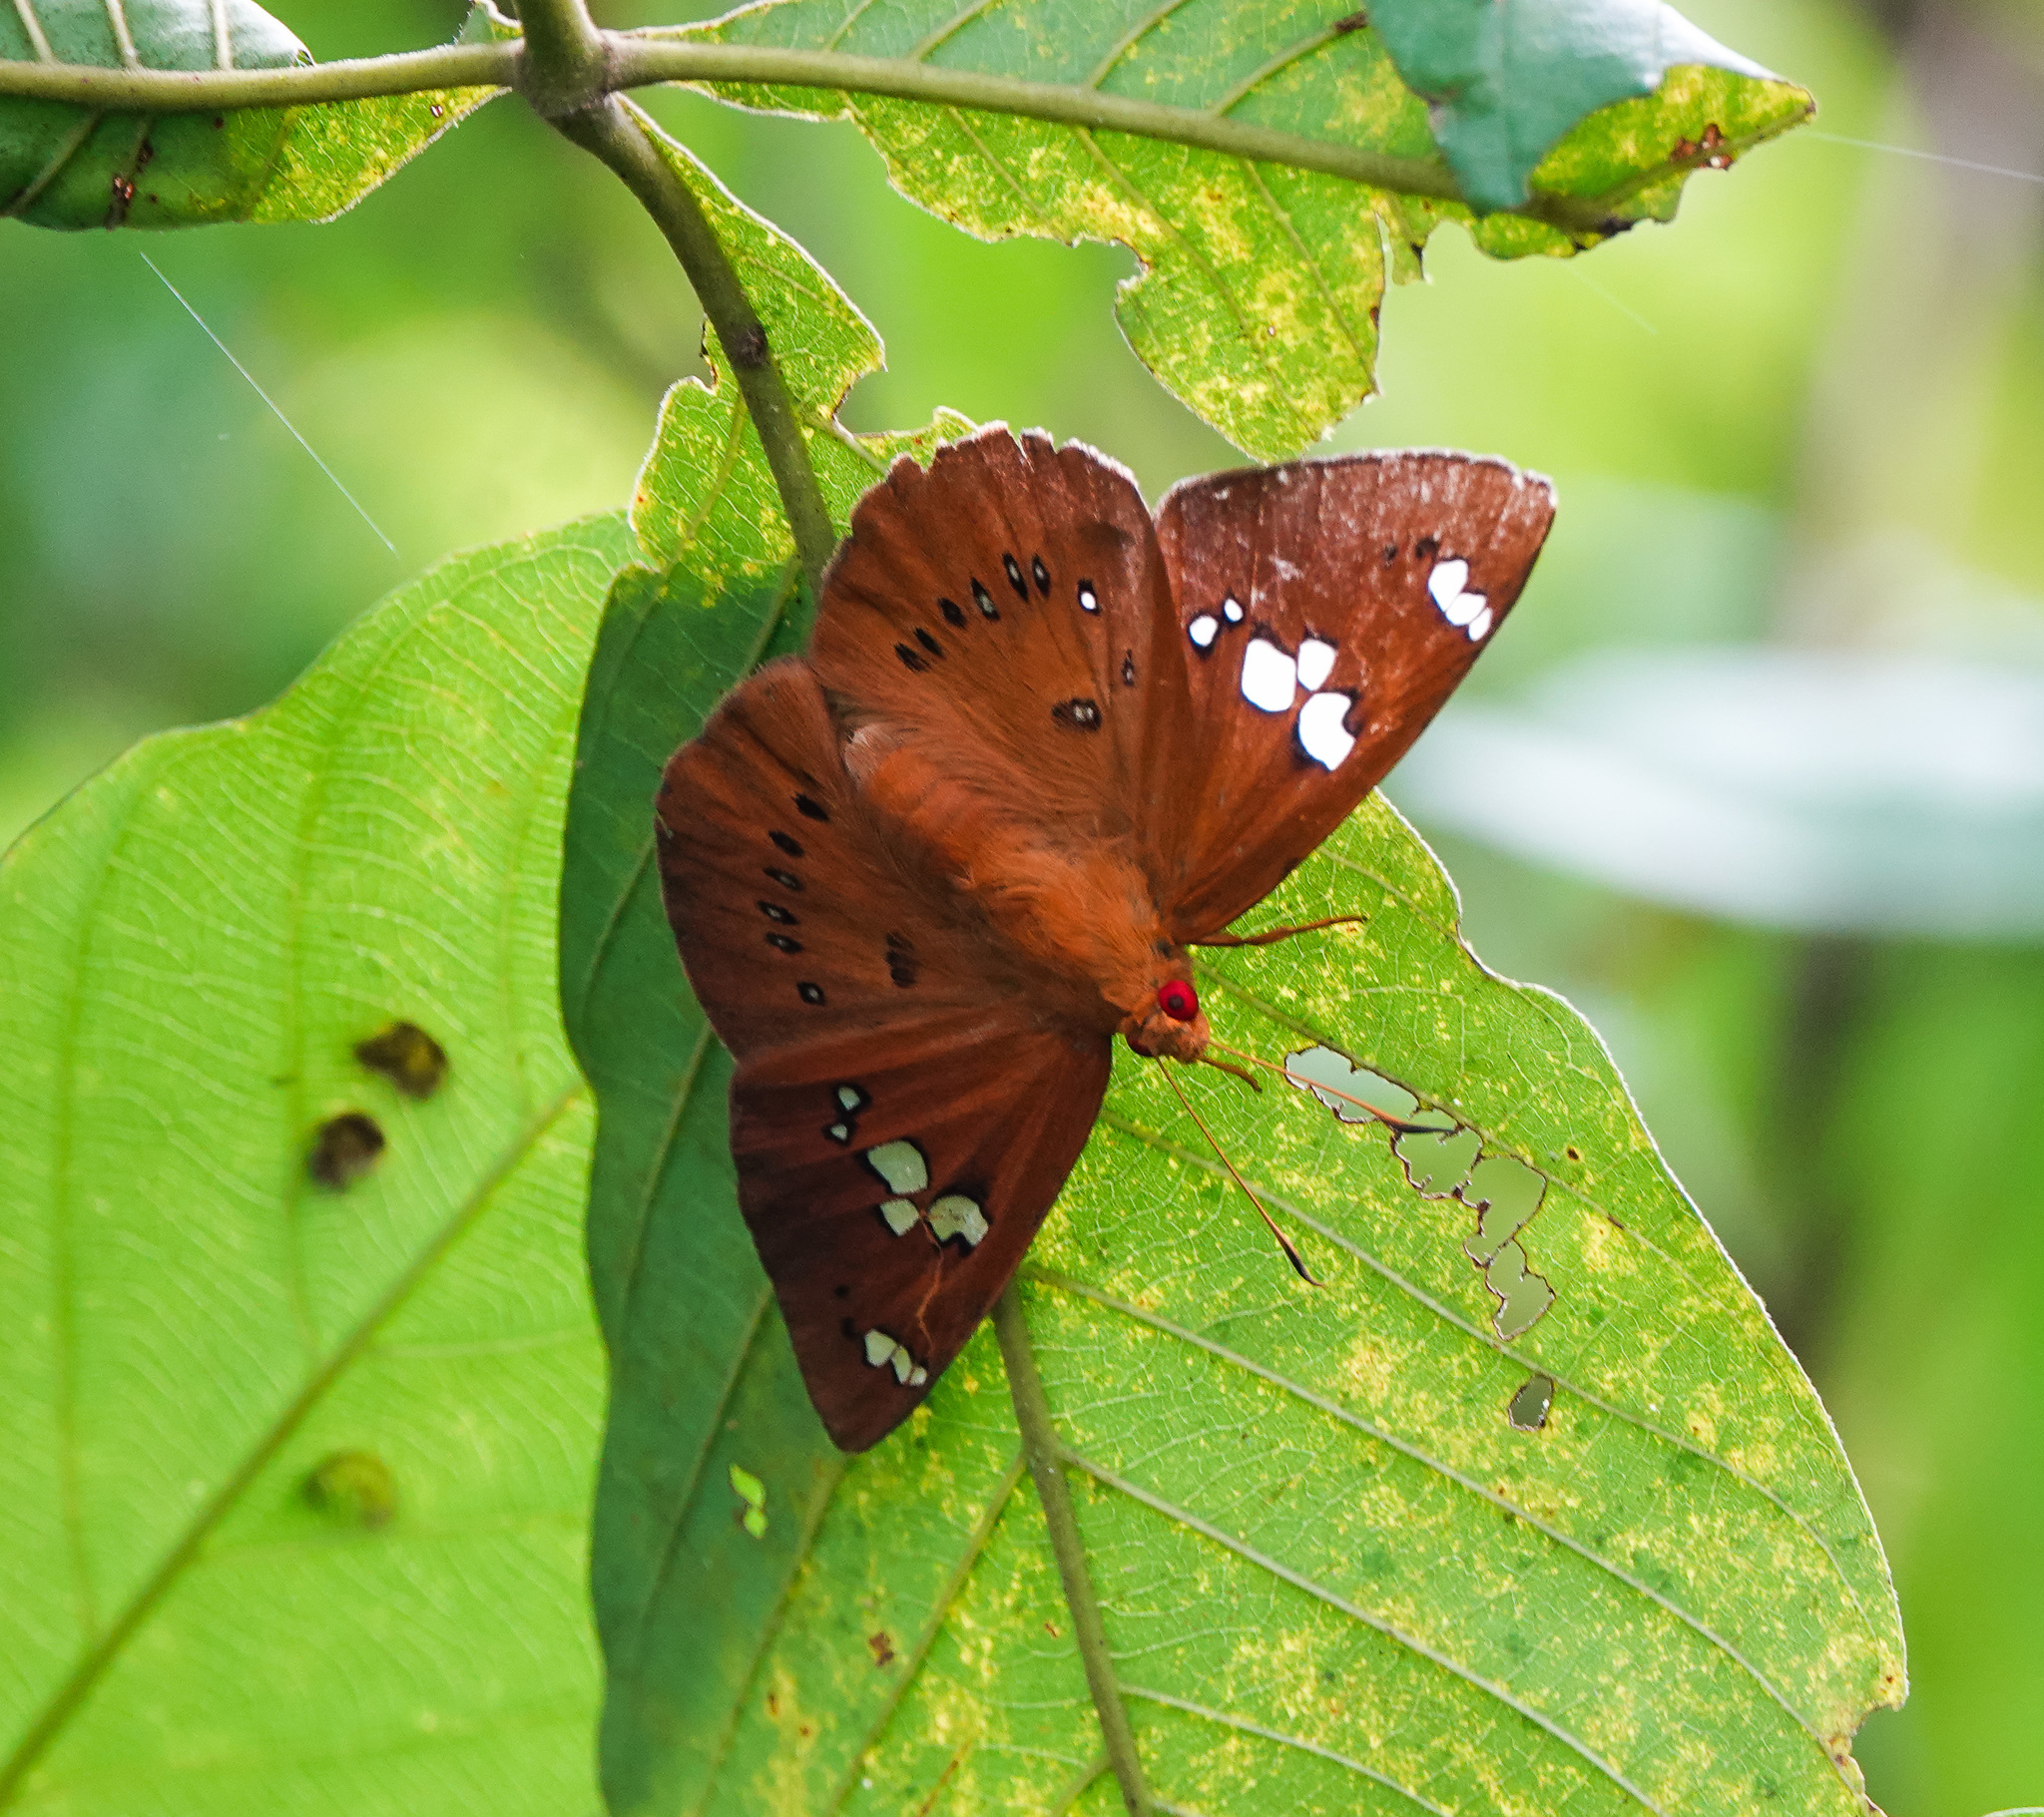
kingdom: Animalia
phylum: Arthropoda
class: Insecta
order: Lepidoptera
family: Hesperiidae
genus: Capila
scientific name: Capila phanaeus
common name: Fulvous dawnfly
